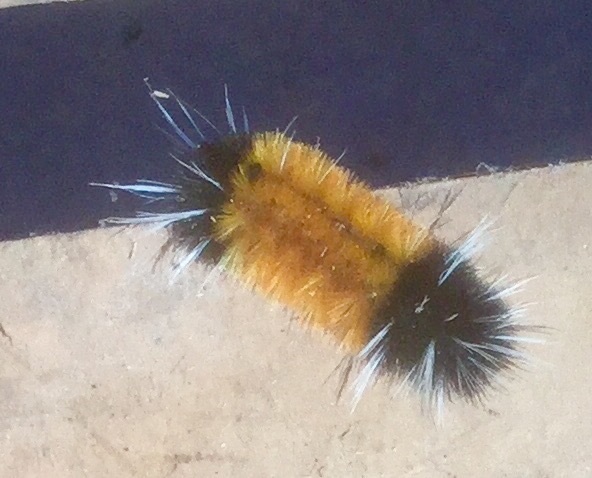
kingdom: Animalia
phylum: Arthropoda
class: Insecta
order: Lepidoptera
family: Erebidae
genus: Lophocampa
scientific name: Lophocampa maculata
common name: Spotted tussock moth
